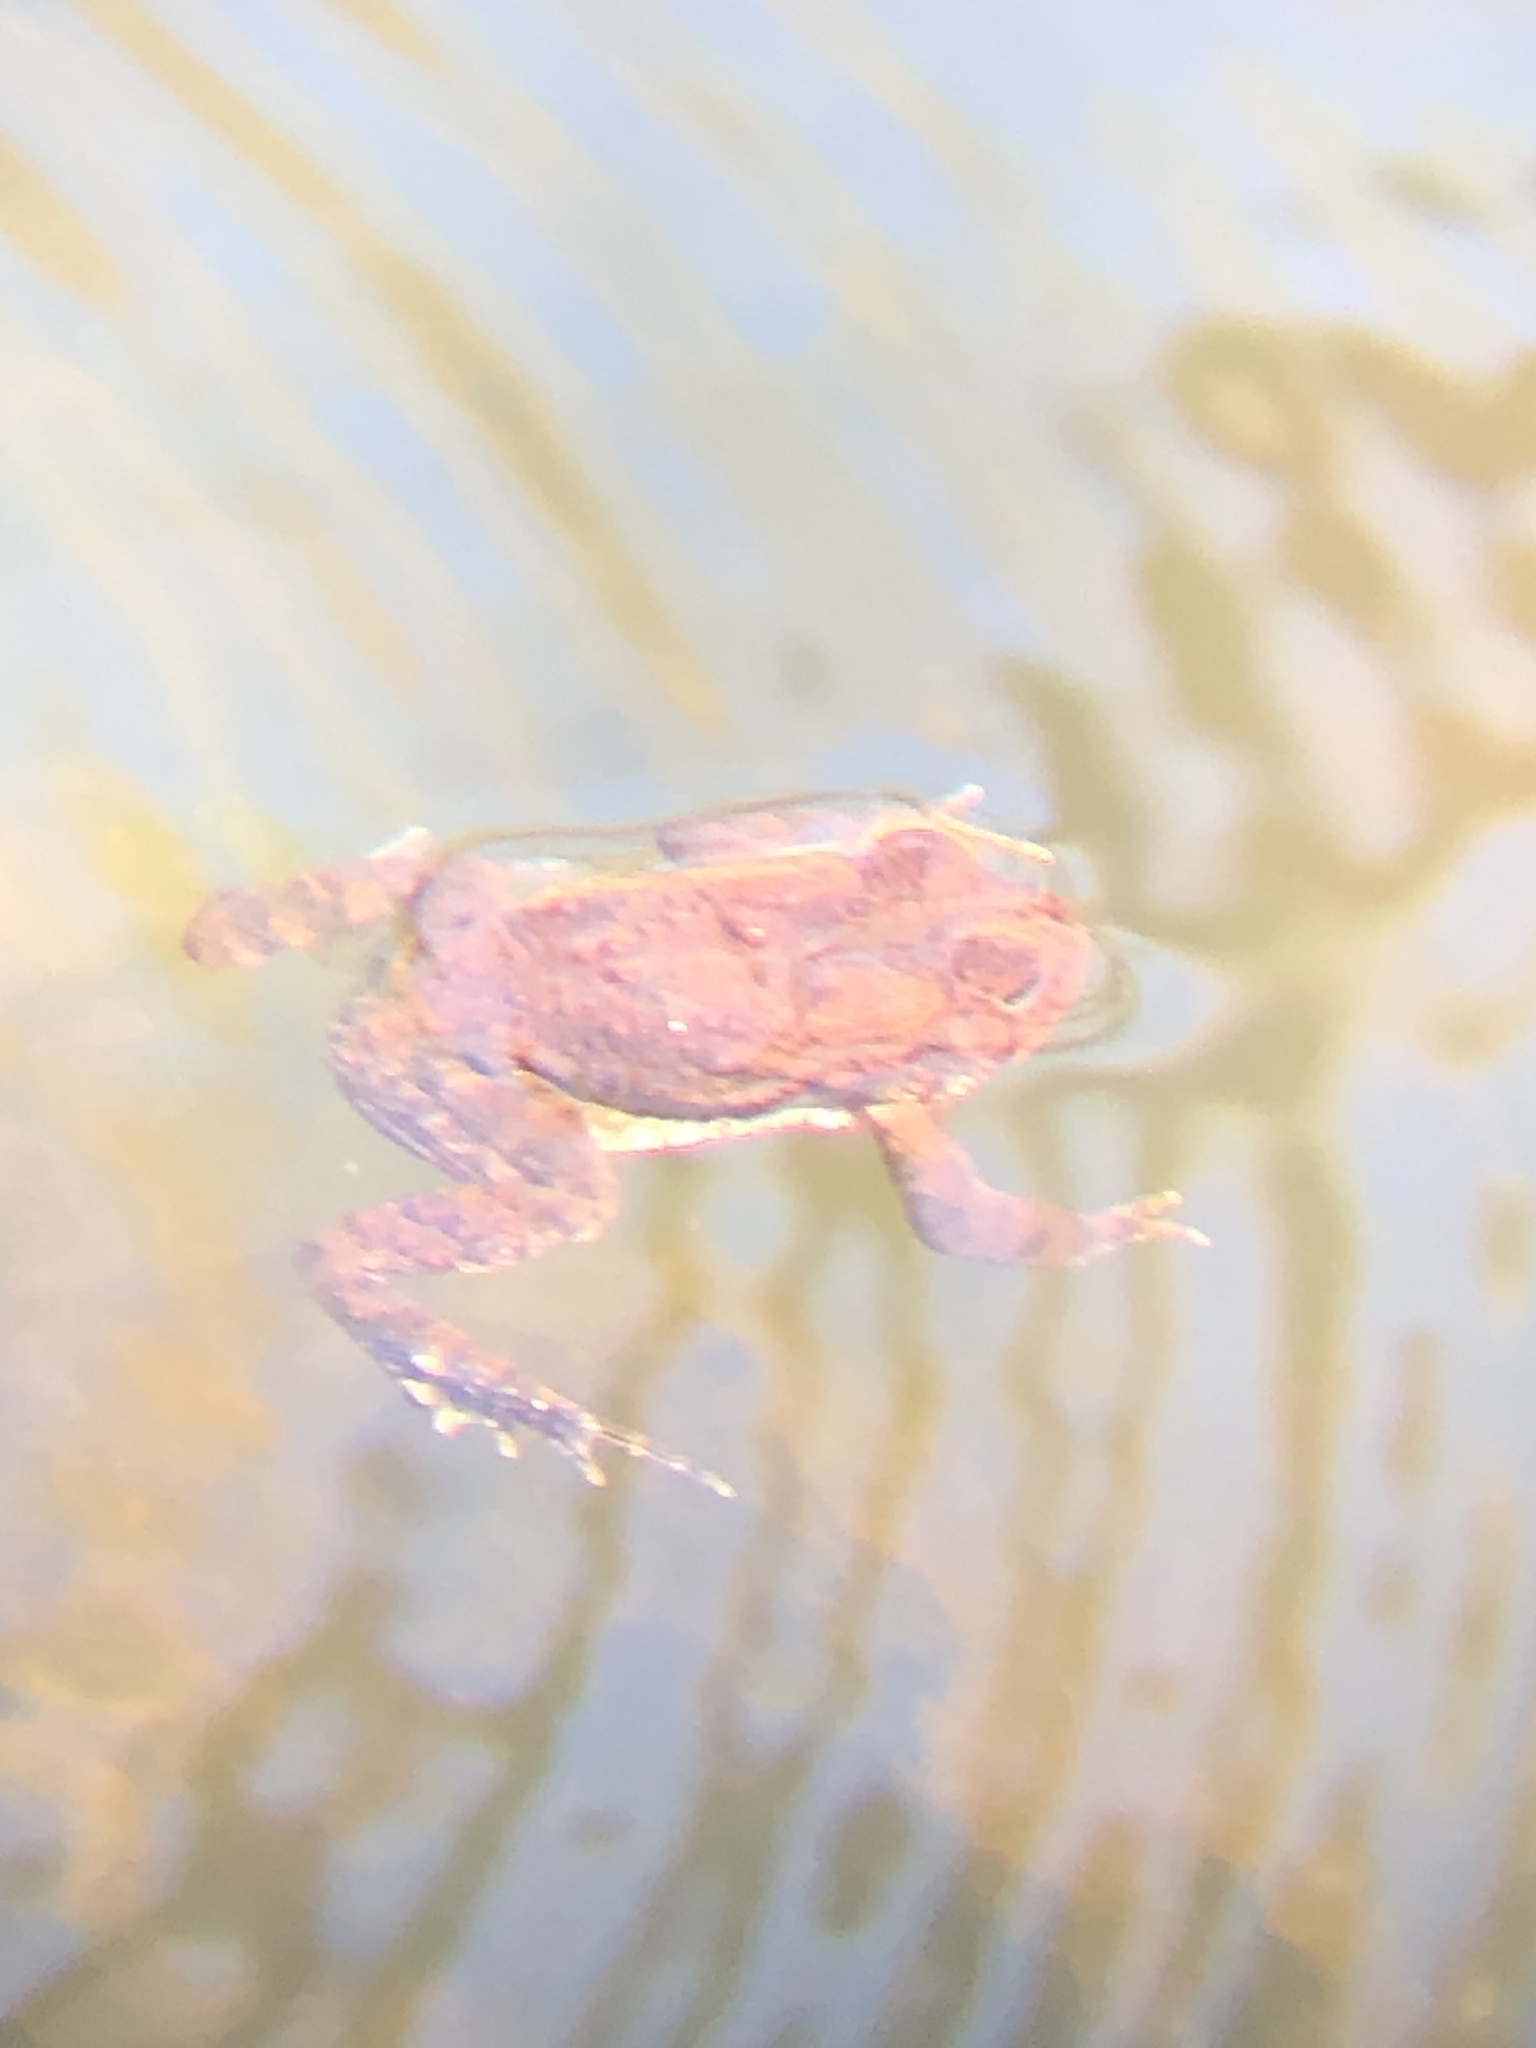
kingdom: Animalia
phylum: Chordata
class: Amphibia
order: Anura
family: Bufonidae
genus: Anaxyrus
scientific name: Anaxyrus americanus
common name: American toad
